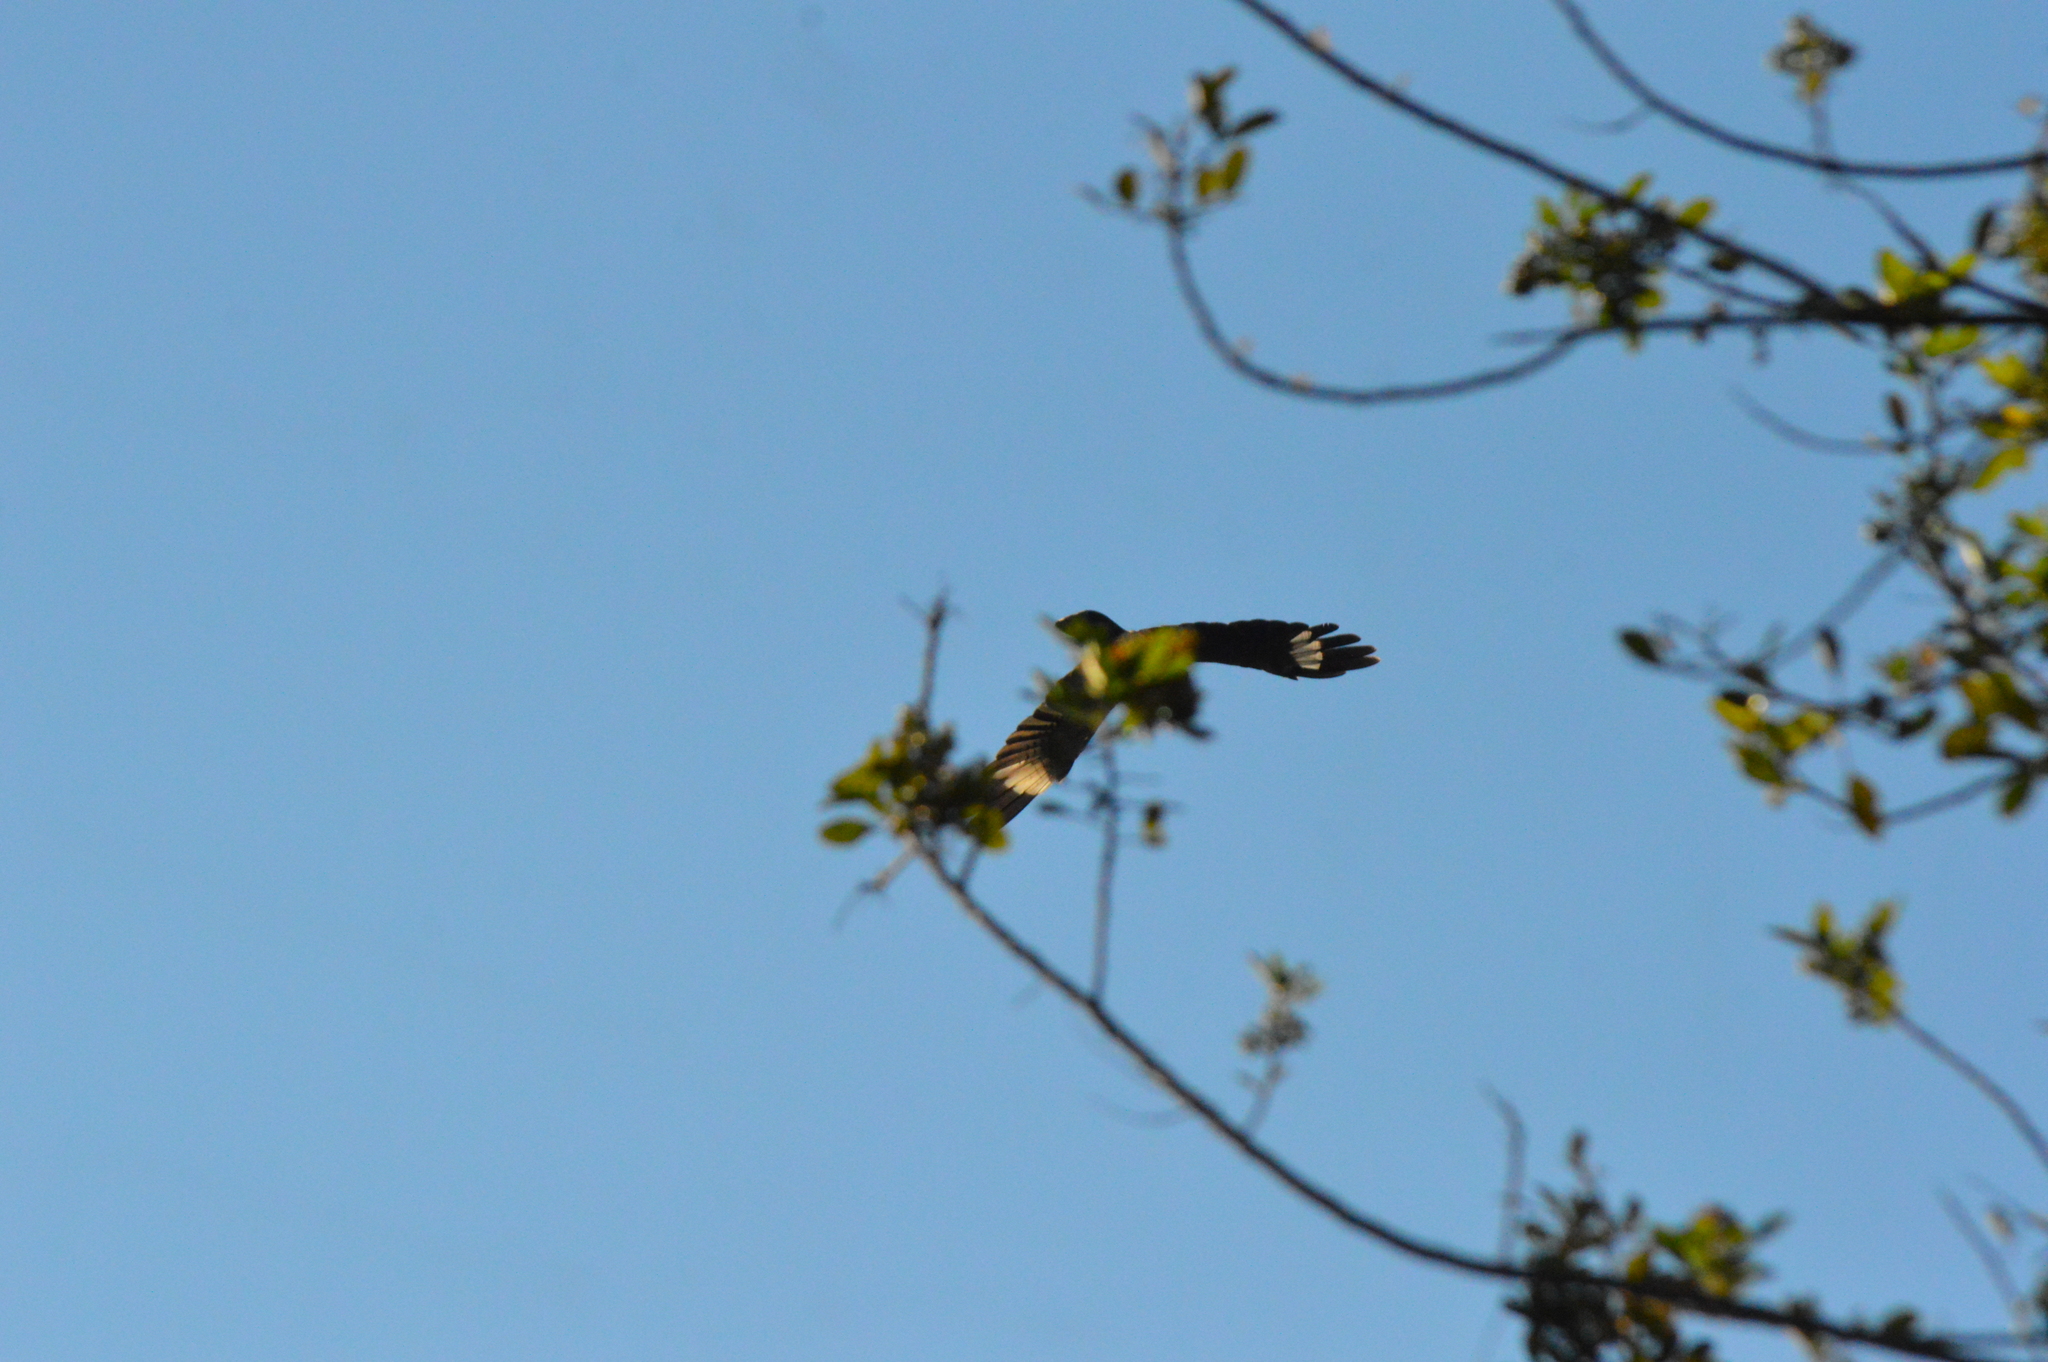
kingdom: Animalia
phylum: Chordata
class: Aves
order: Falconiformes
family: Falconidae
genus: Daptrius
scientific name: Daptrius
